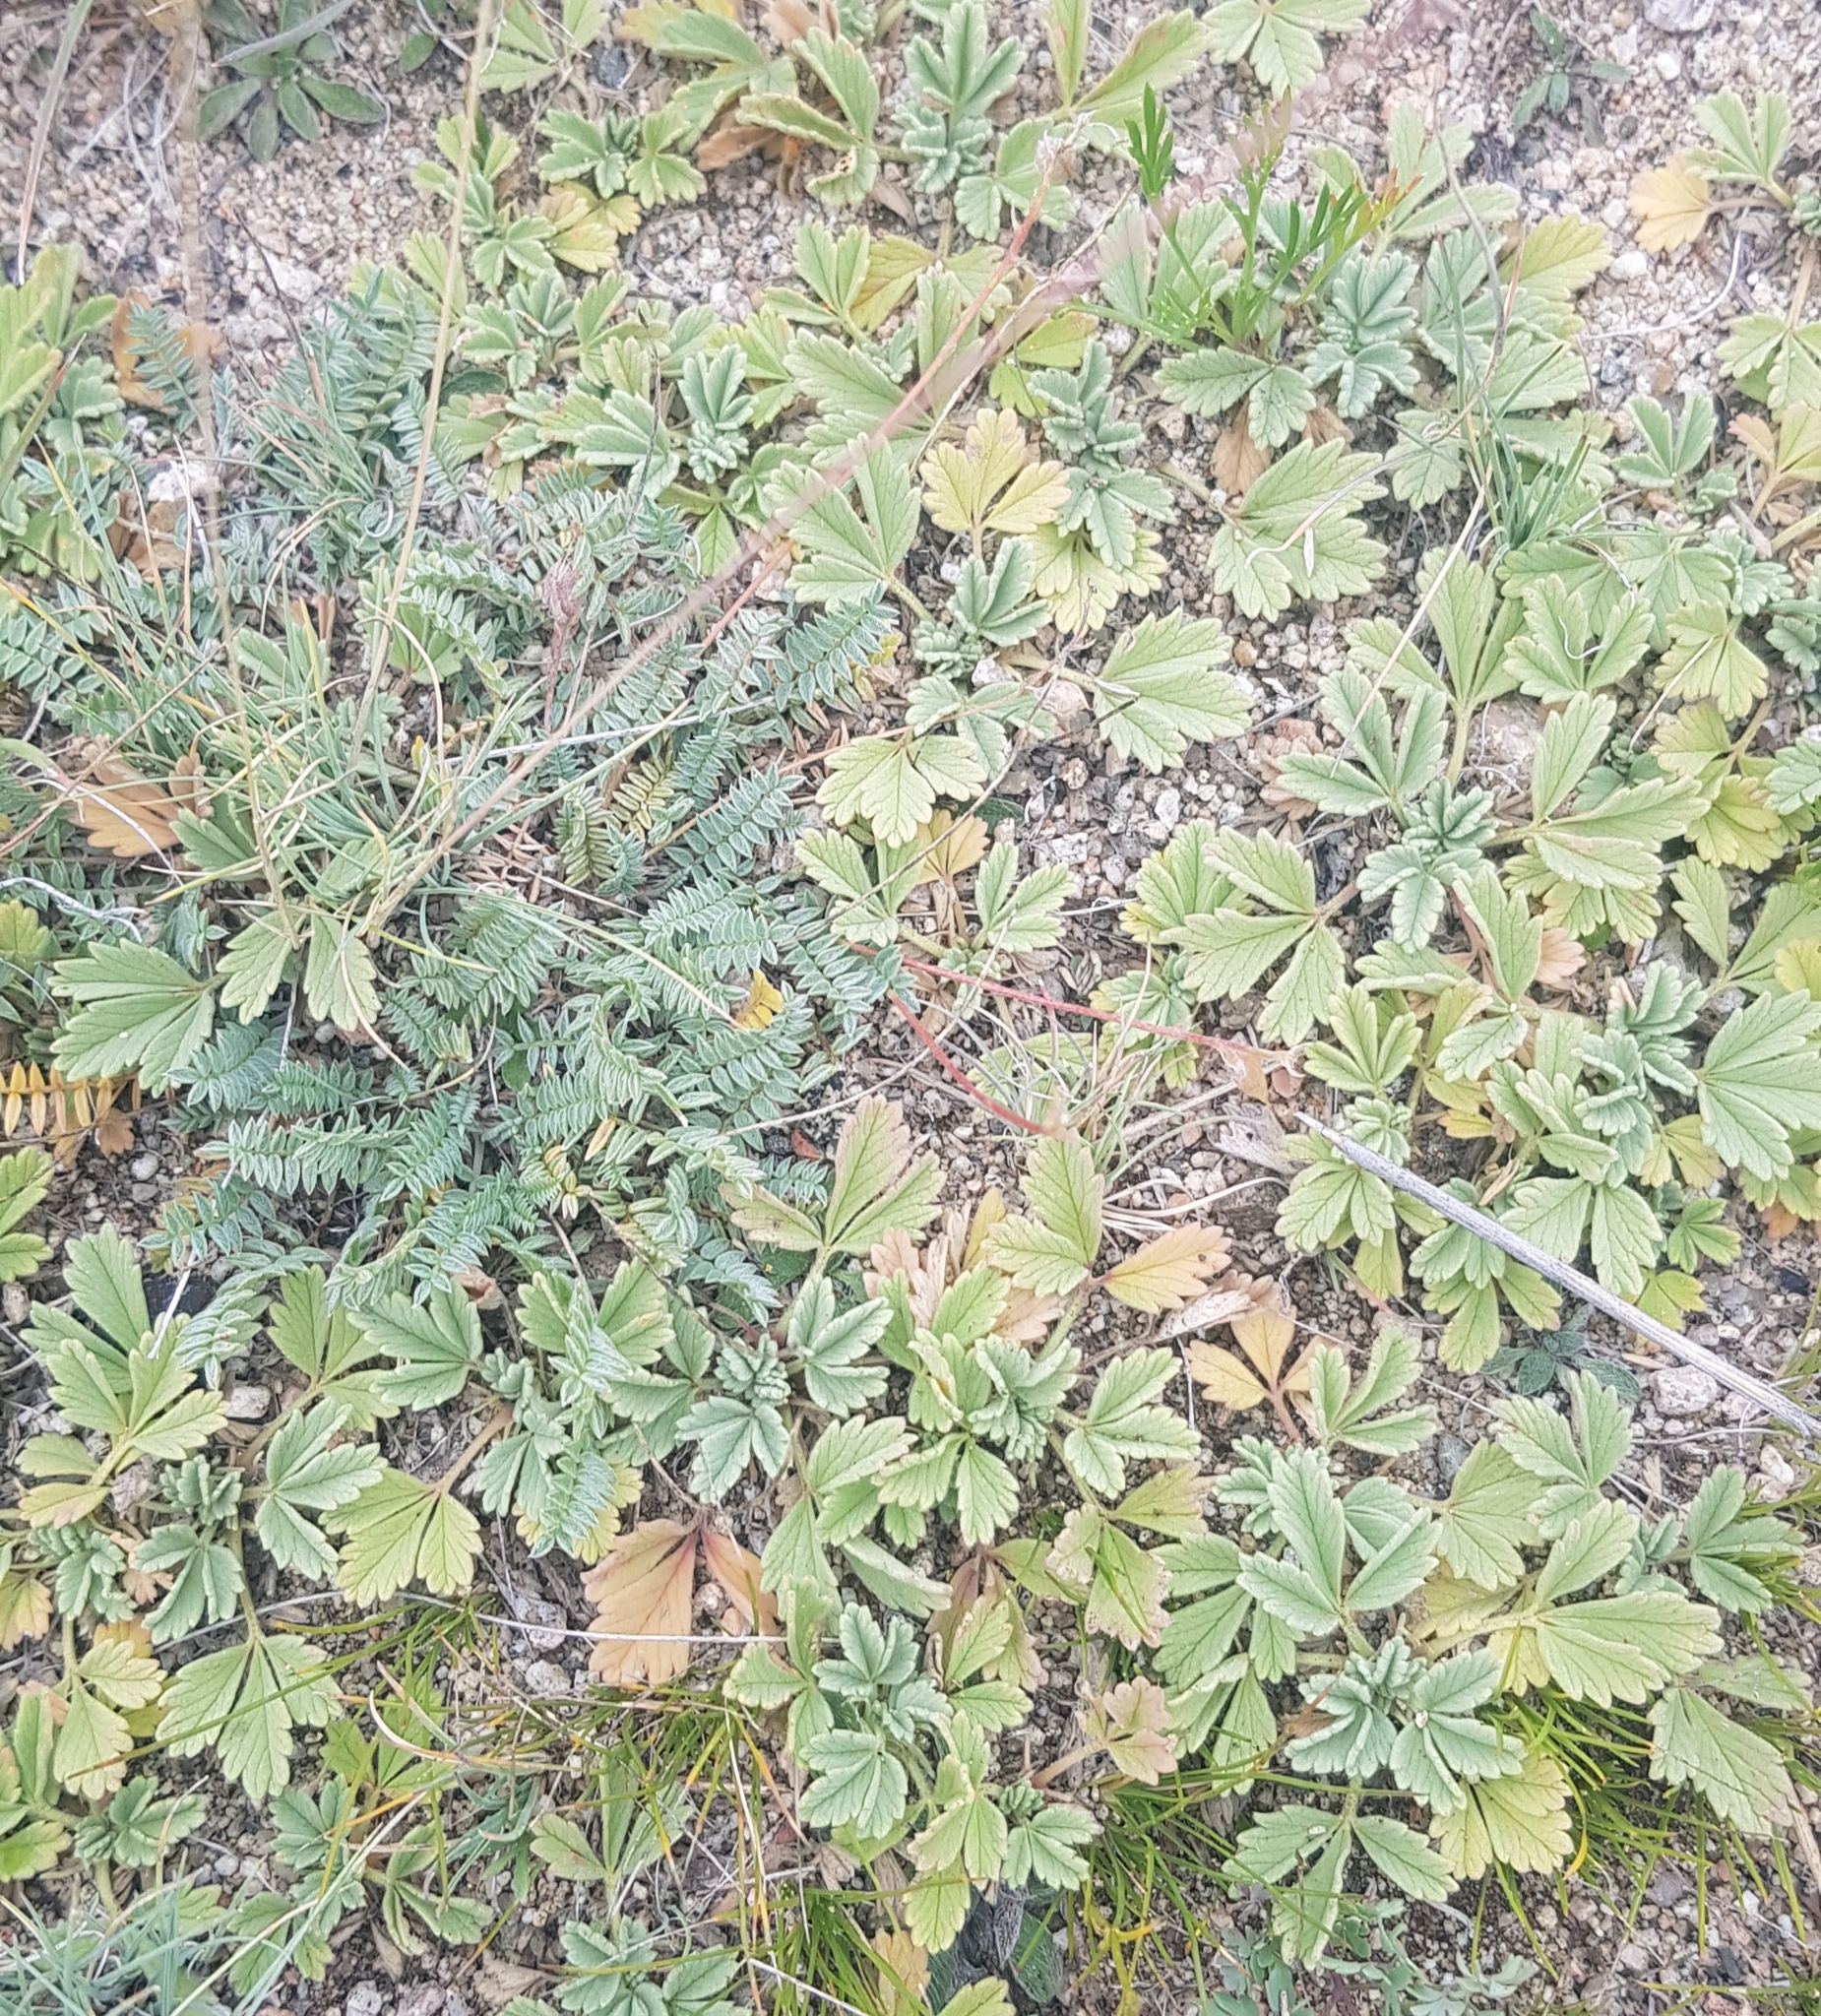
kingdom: Plantae
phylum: Tracheophyta
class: Magnoliopsida
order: Rosales
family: Rosaceae
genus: Potentilla
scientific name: Potentilla acaulis
